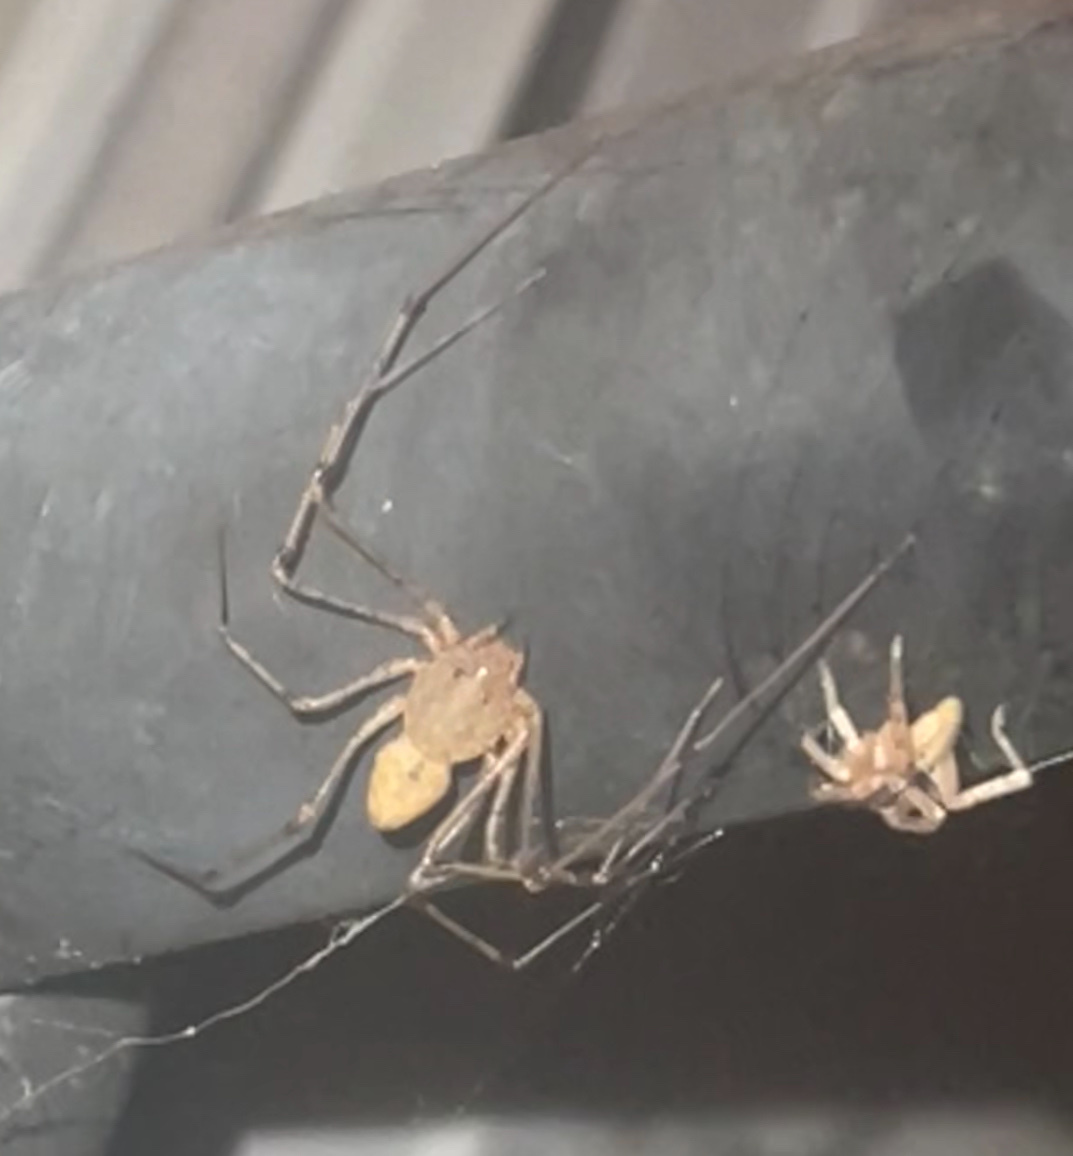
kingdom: Animalia
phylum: Arthropoda
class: Arachnida
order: Araneae
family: Scytodidae
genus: Scytodes
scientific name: Scytodes atlacoya
